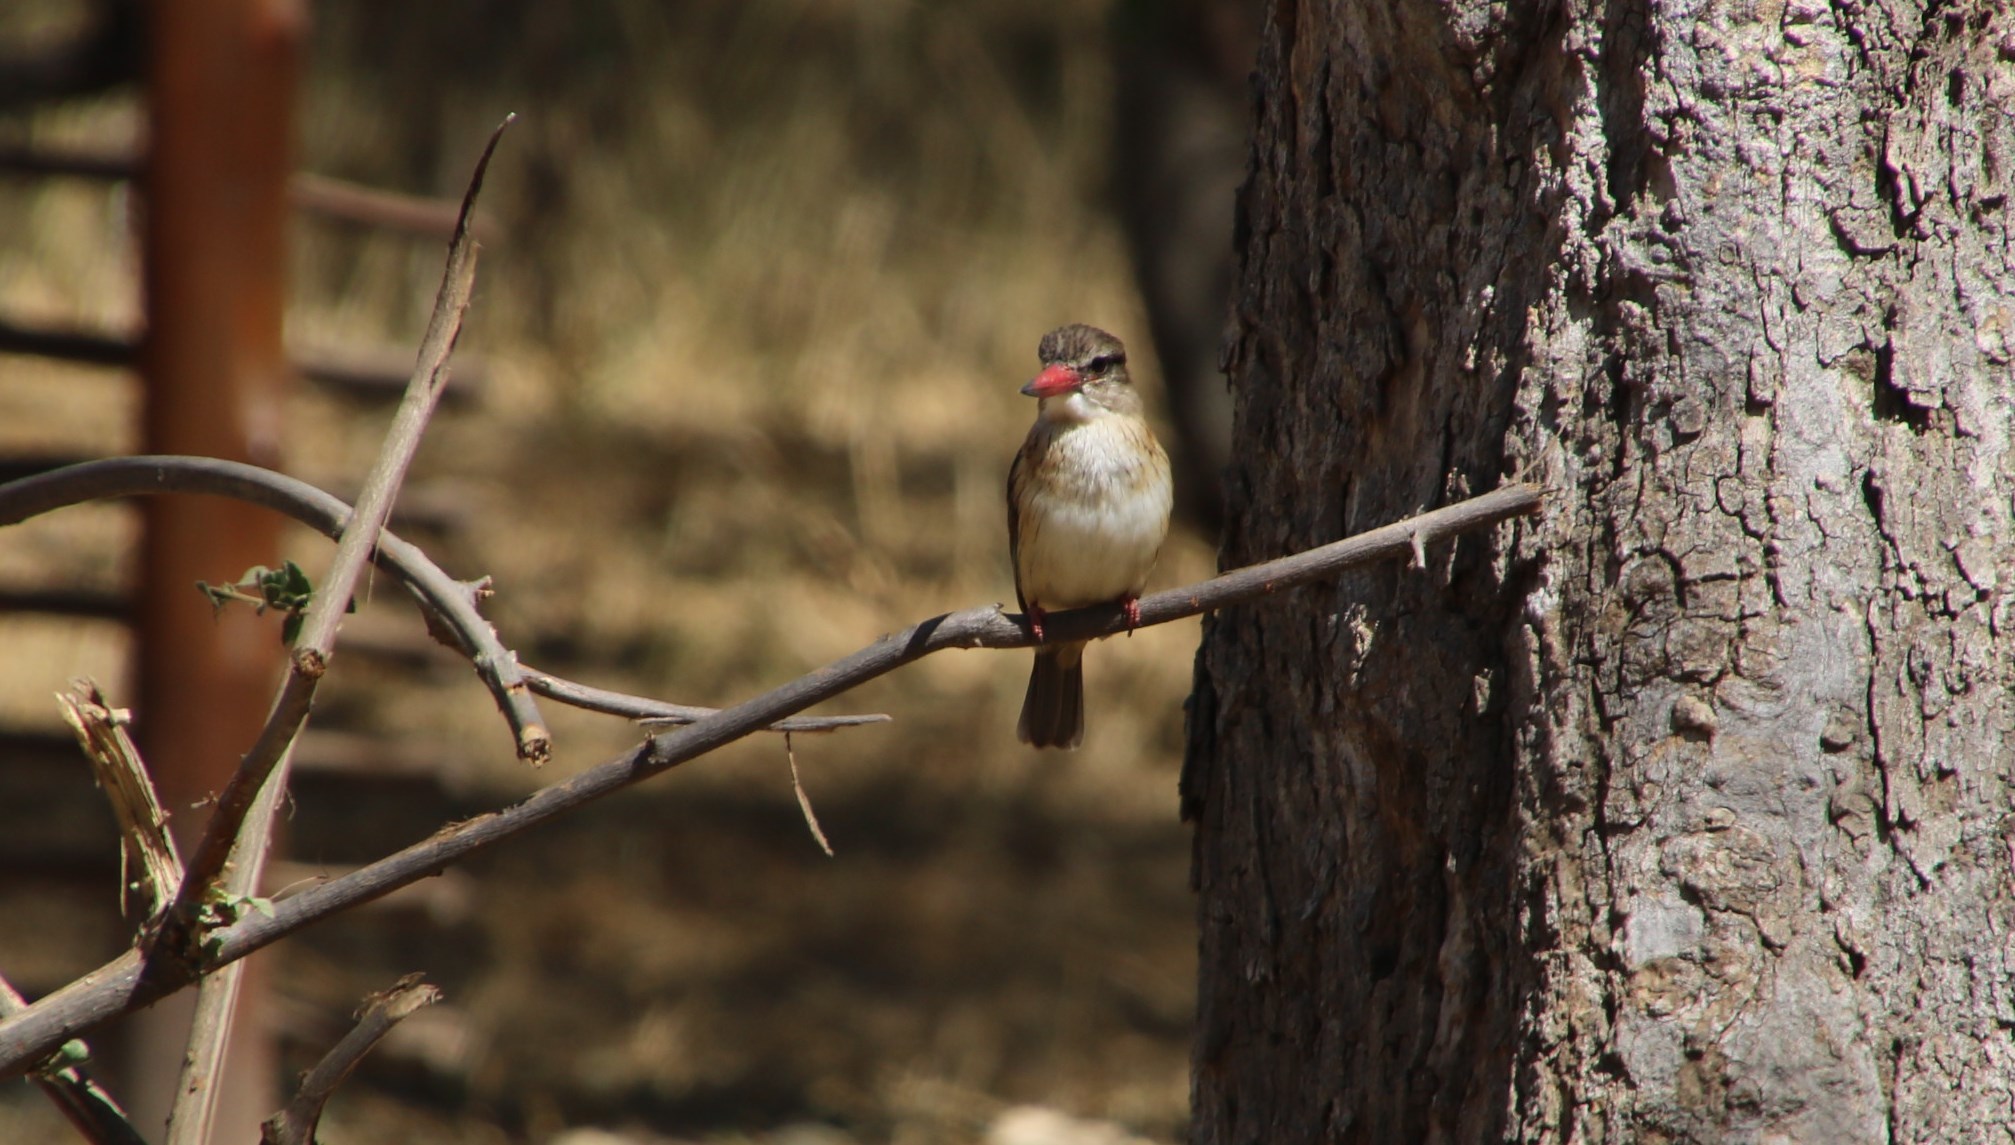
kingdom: Animalia
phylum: Chordata
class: Aves
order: Coraciiformes
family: Alcedinidae
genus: Halcyon
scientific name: Halcyon albiventris
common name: Brown-hooded kingfisher
